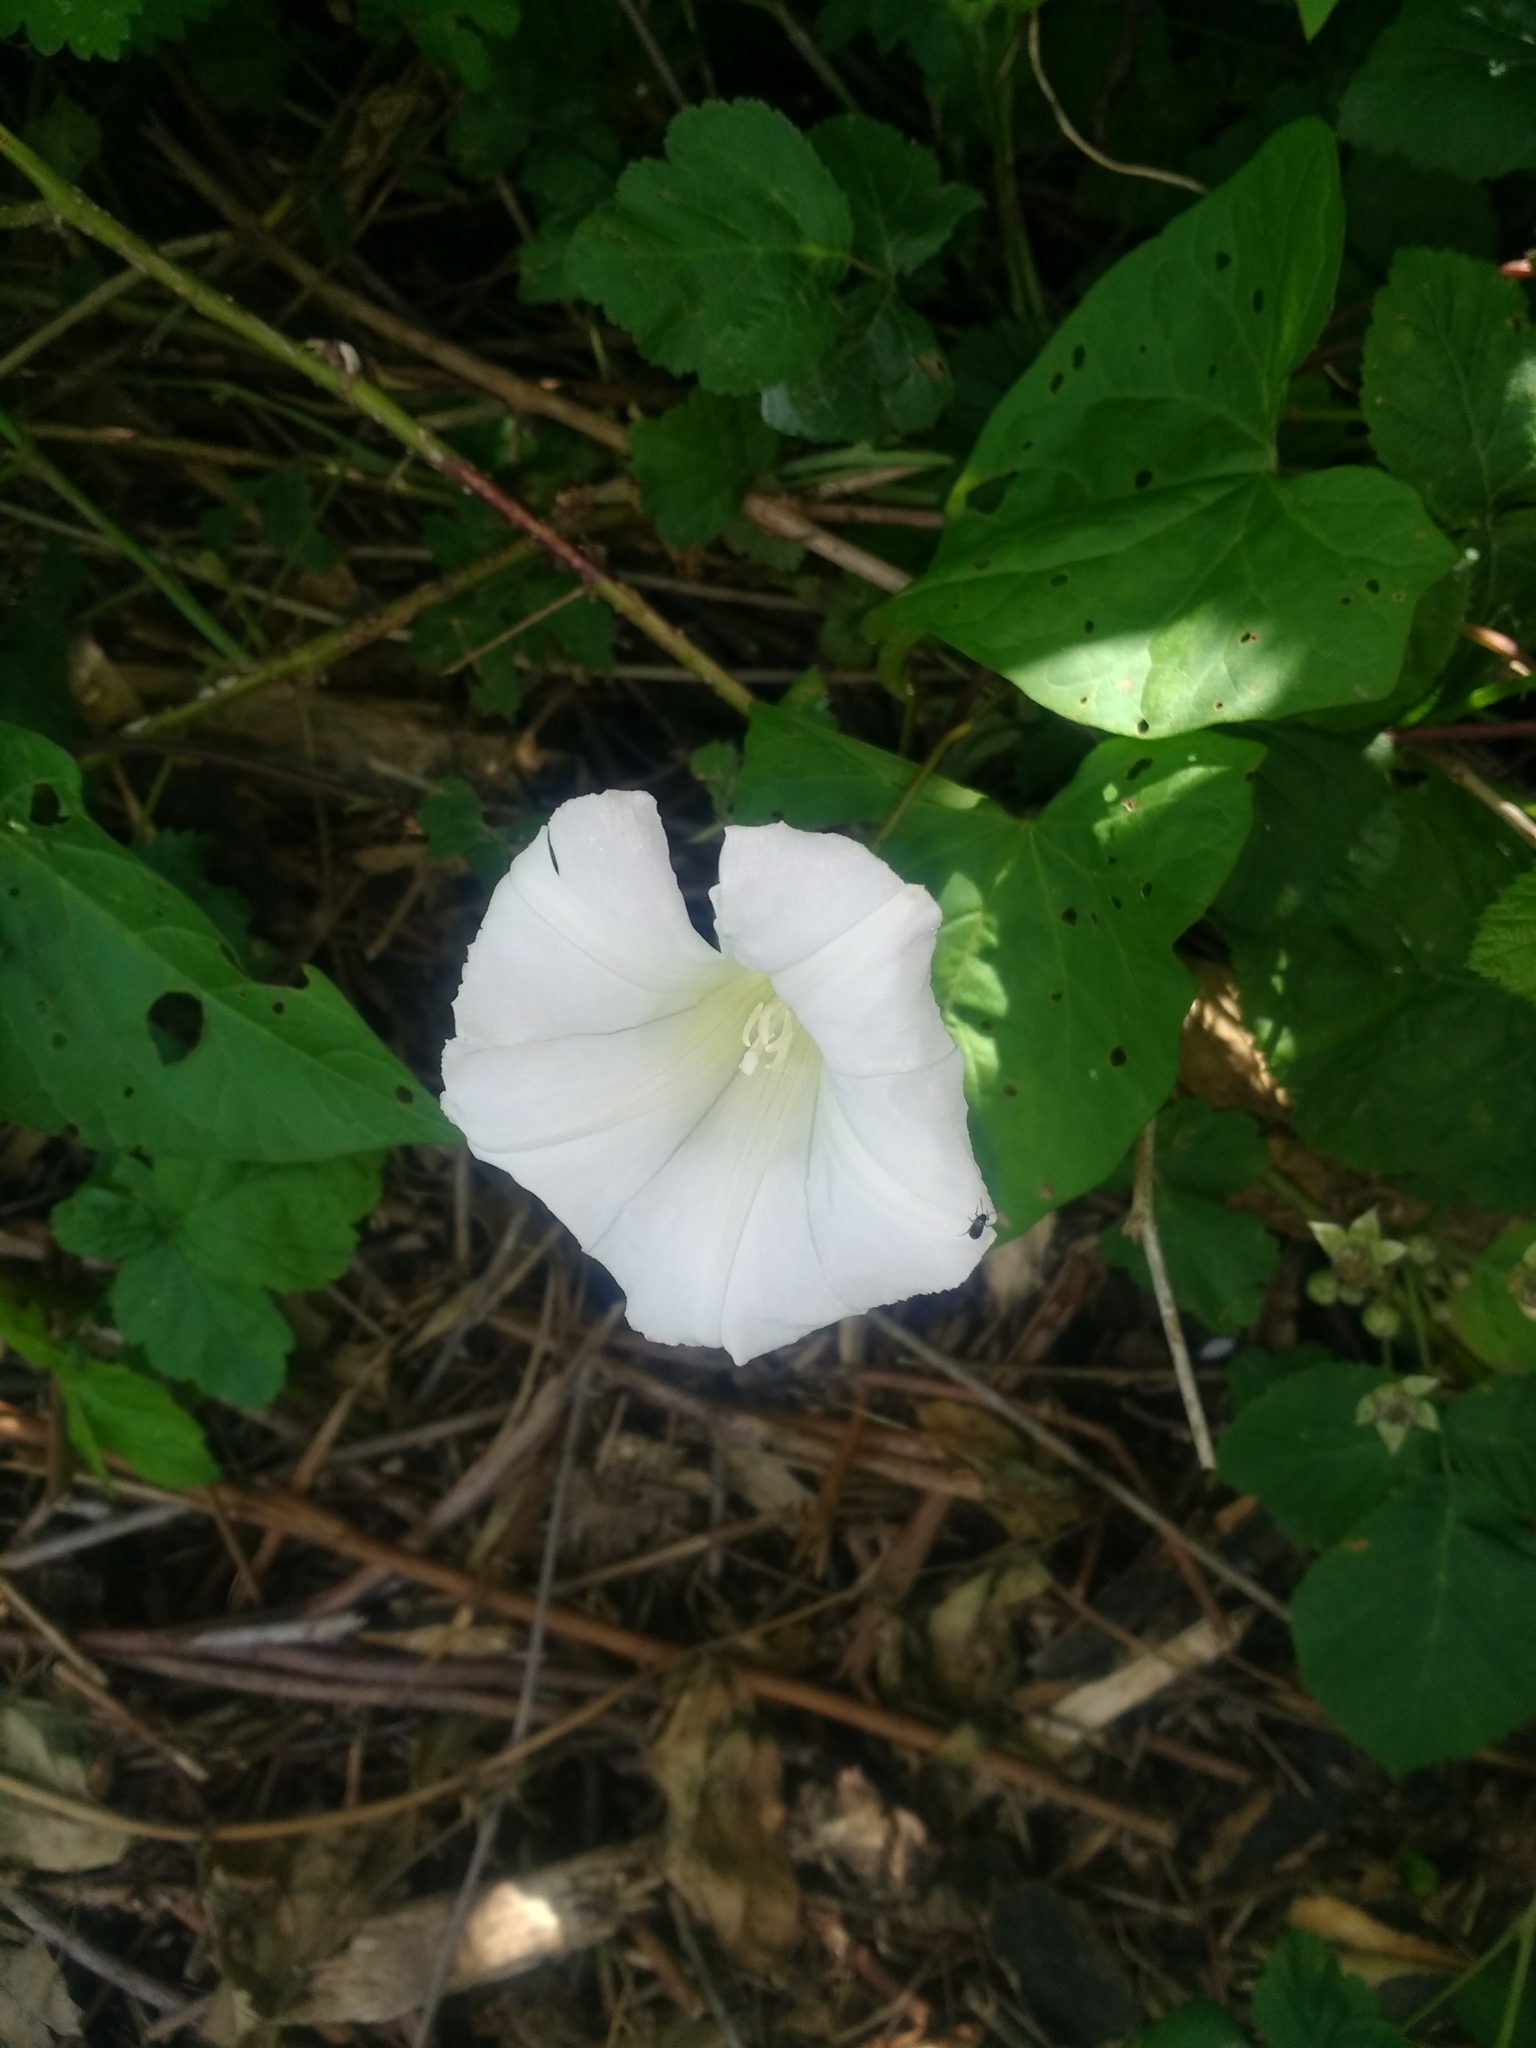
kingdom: Plantae
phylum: Tracheophyta
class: Magnoliopsida
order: Solanales
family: Convolvulaceae
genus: Calystegia
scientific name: Calystegia
